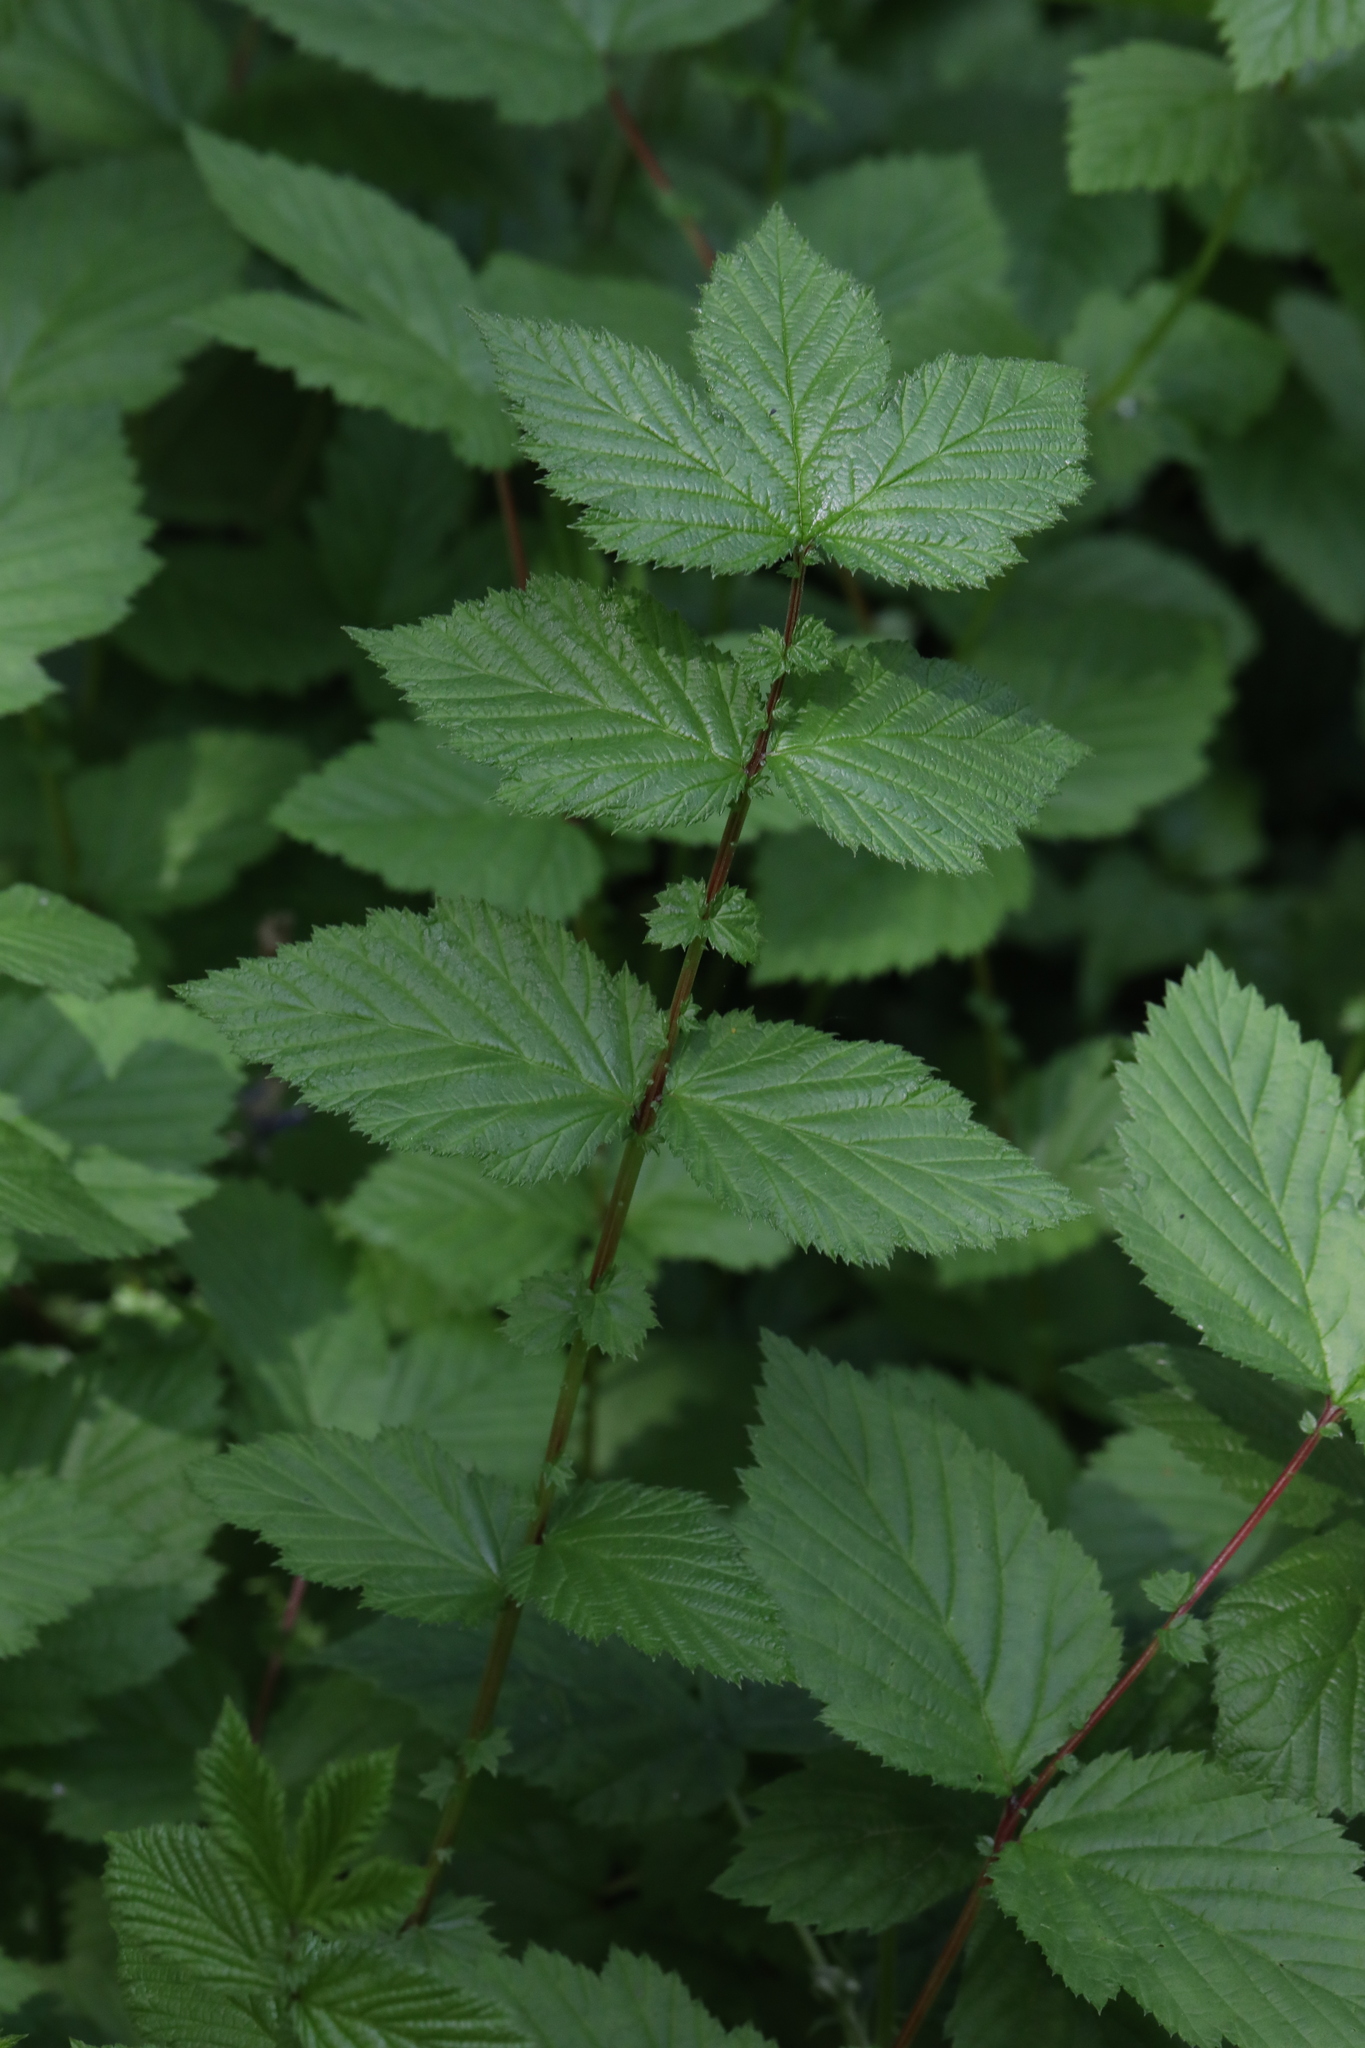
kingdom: Plantae
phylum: Tracheophyta
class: Magnoliopsida
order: Rosales
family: Rosaceae
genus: Filipendula
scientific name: Filipendula ulmaria
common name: Meadowsweet
